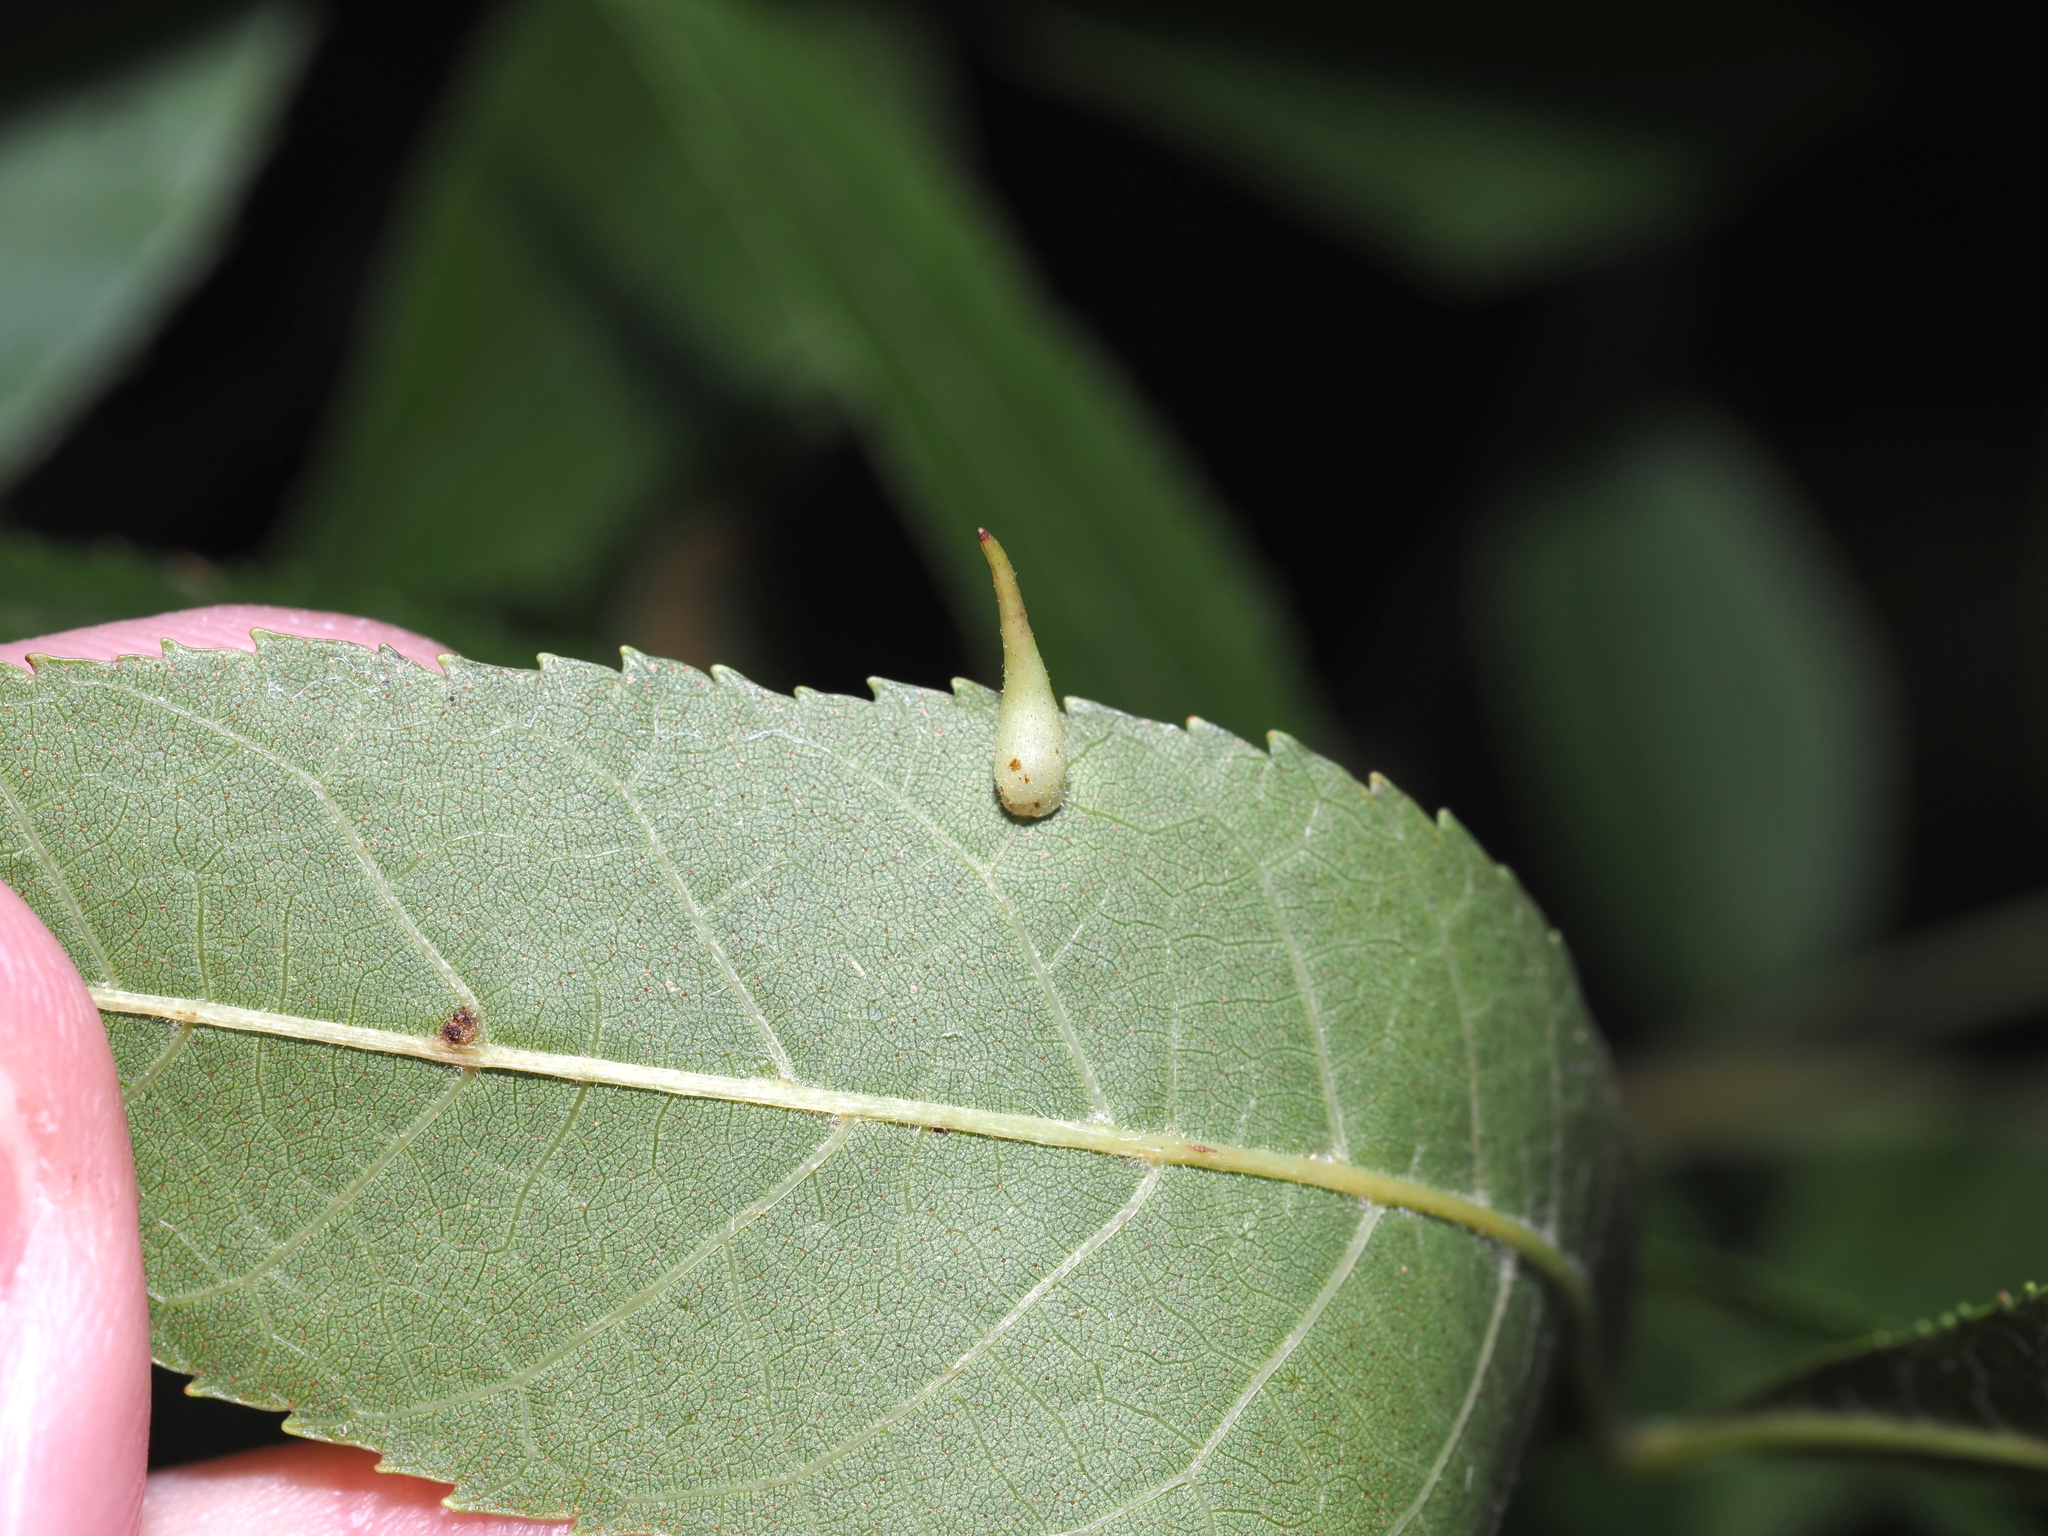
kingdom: Animalia
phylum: Arthropoda
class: Insecta
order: Diptera
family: Cecidomyiidae
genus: Caryomyia
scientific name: Caryomyia spinulosa
